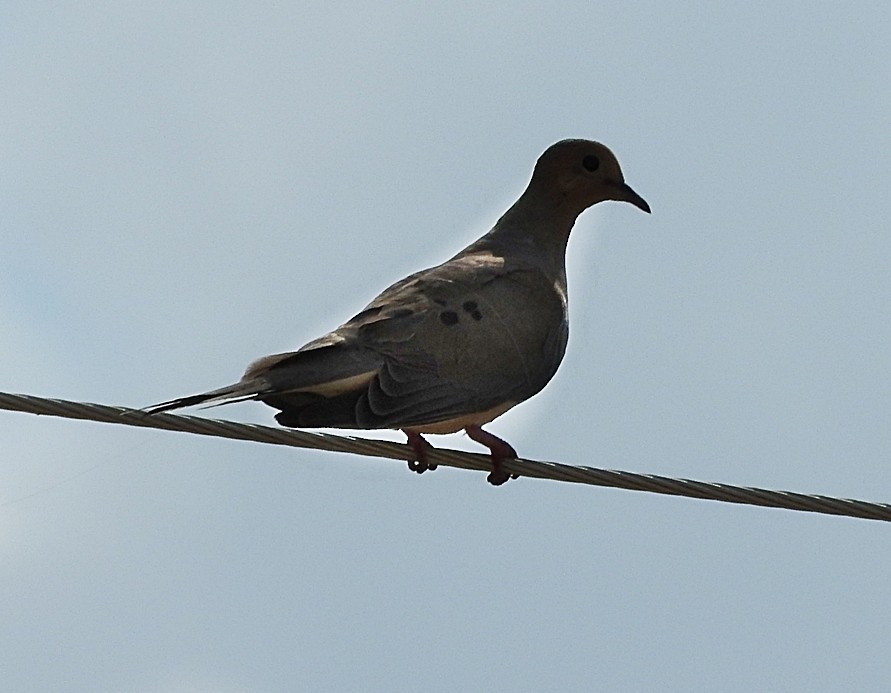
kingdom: Animalia
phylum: Chordata
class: Aves
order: Columbiformes
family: Columbidae
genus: Zenaida
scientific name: Zenaida macroura
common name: Mourning dove
